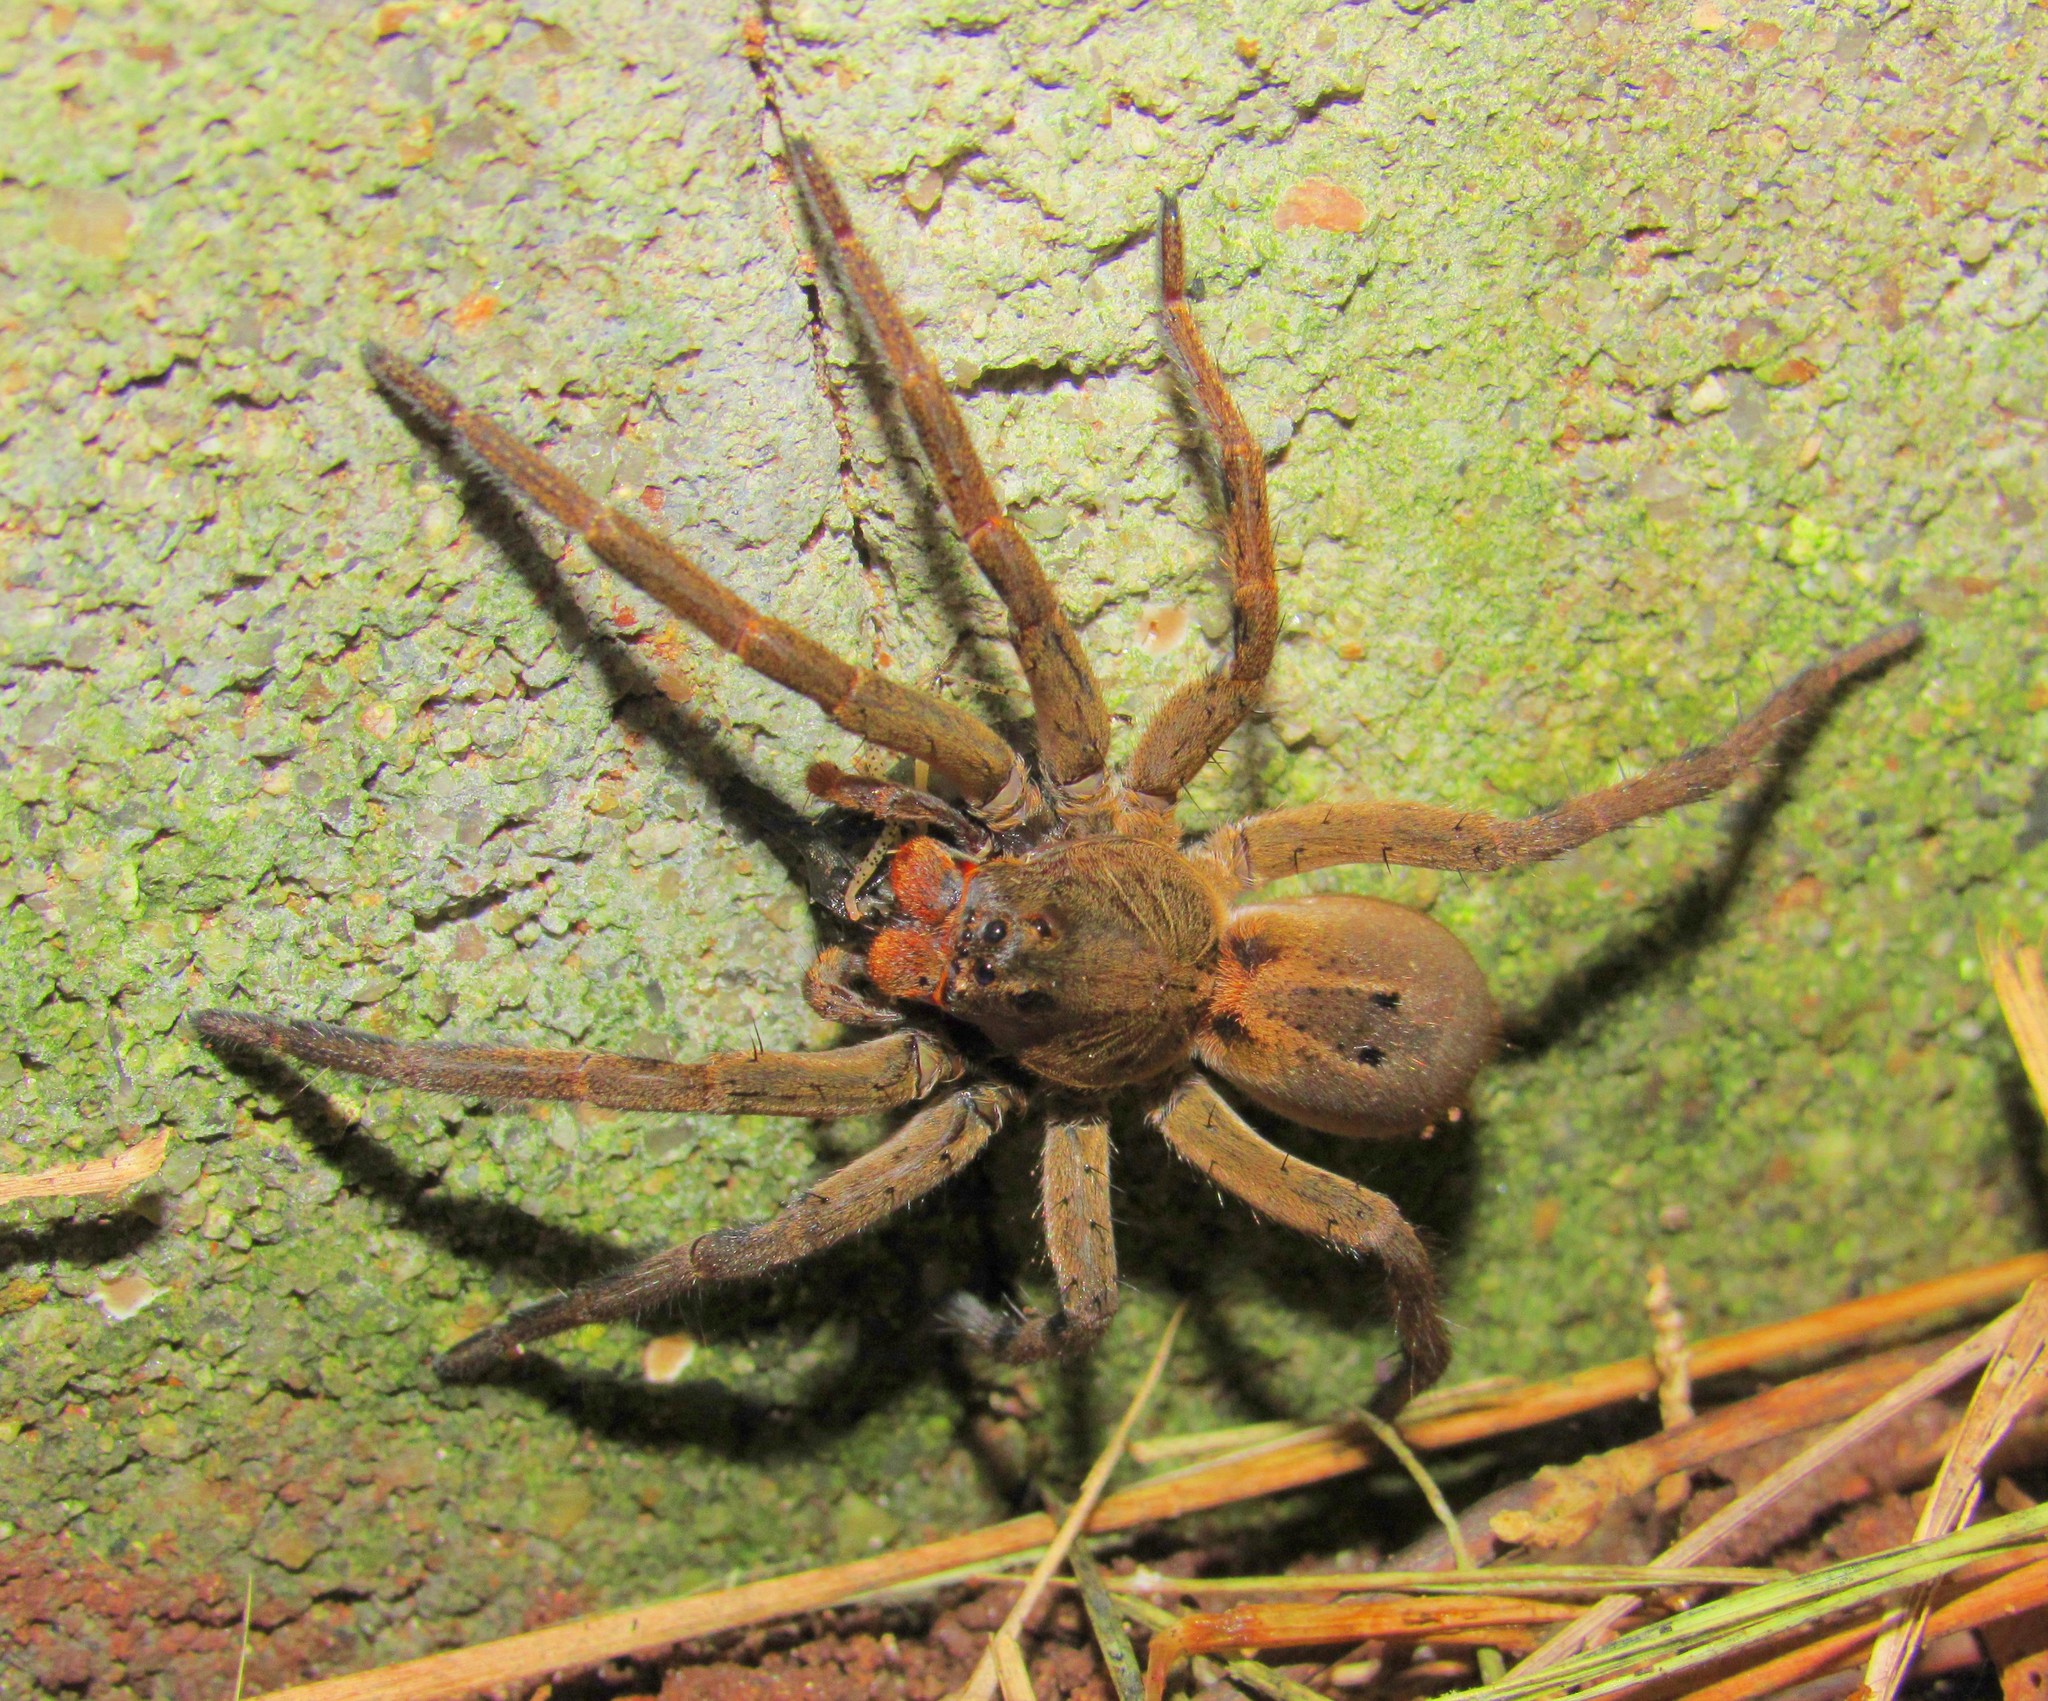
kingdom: Animalia
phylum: Arthropoda
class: Arachnida
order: Araneae
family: Lycosidae
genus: Lycosa
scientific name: Lycosa erythrognatha
